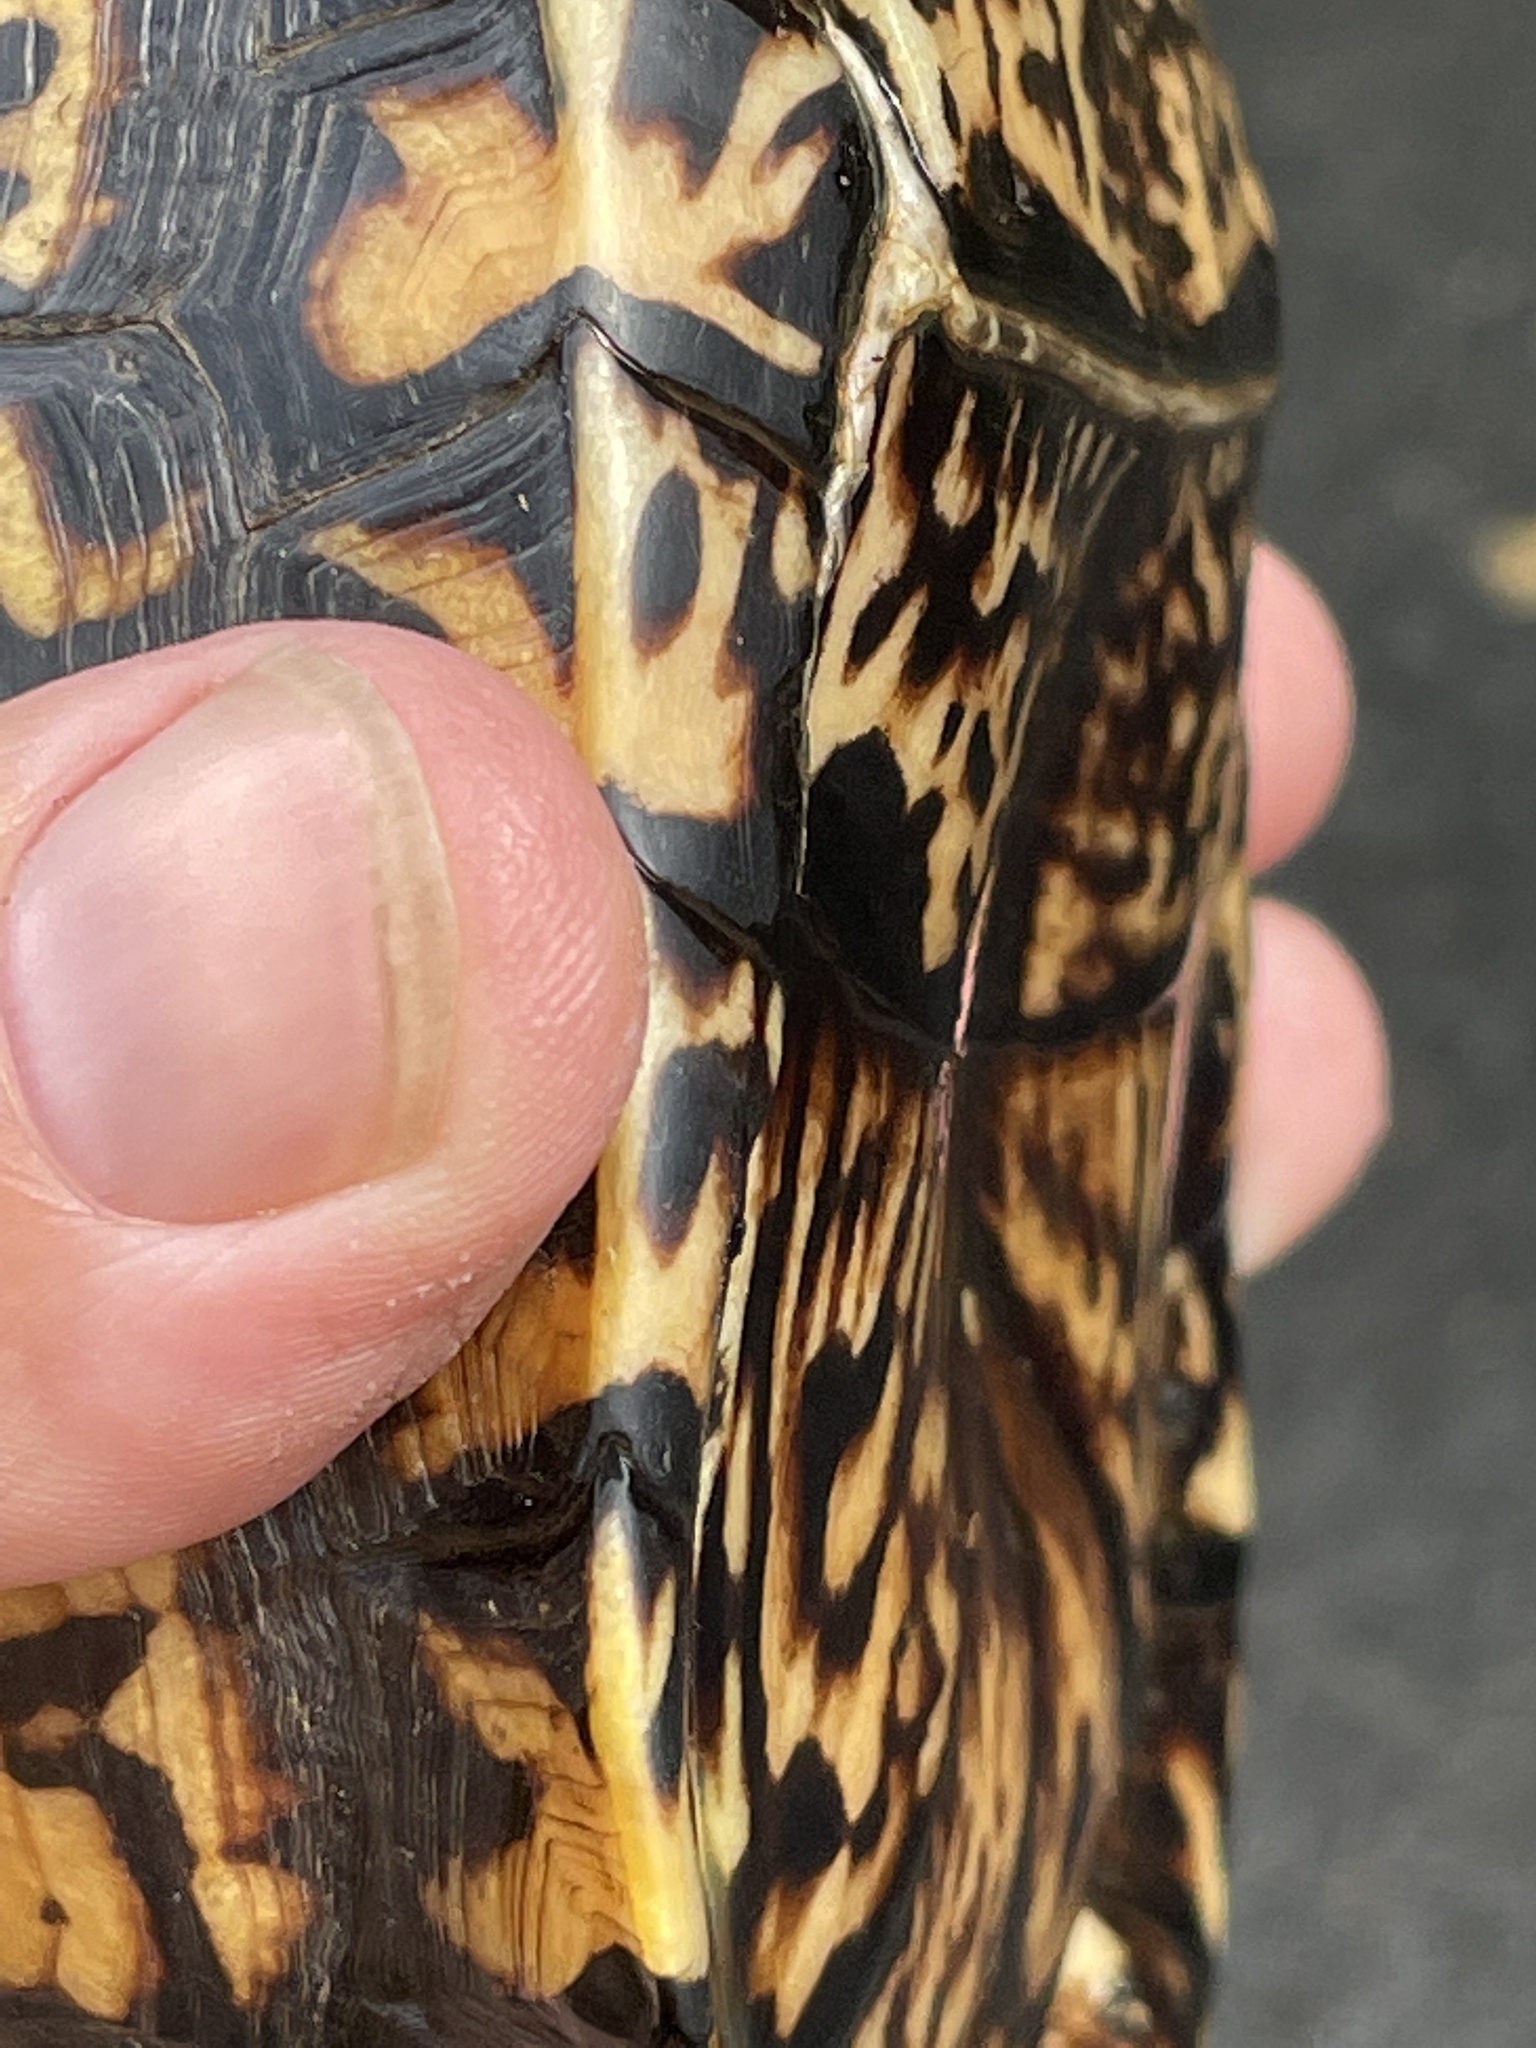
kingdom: Animalia
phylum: Chordata
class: Testudines
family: Emydidae
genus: Terrapene
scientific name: Terrapene carolina
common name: Common box turtle
